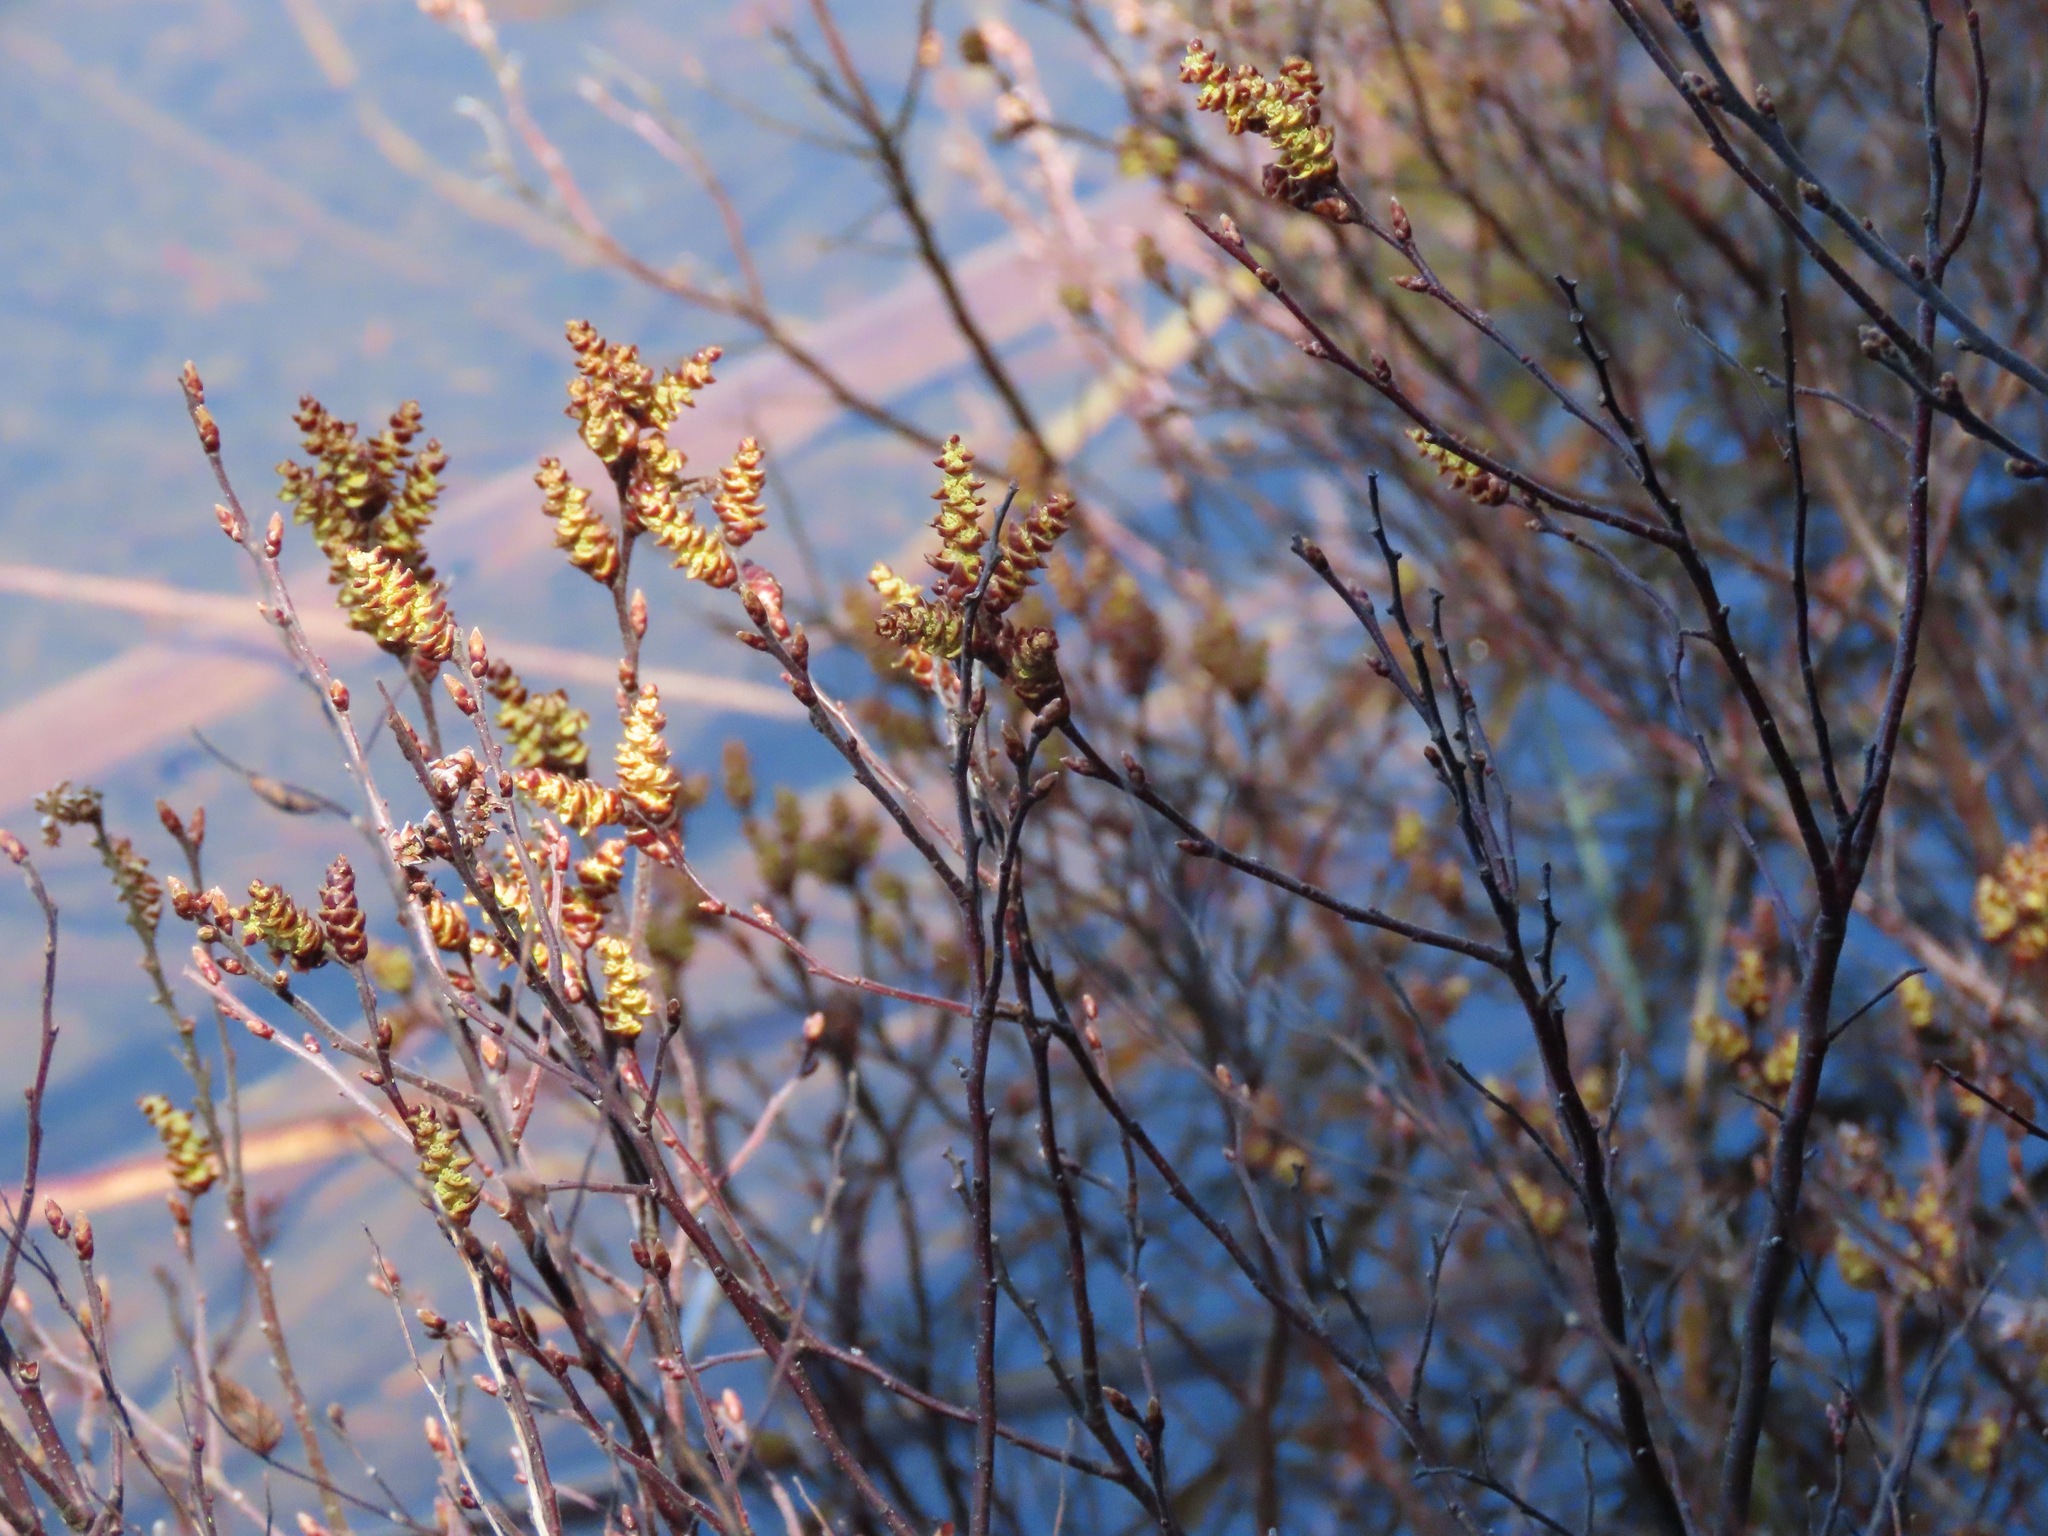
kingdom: Plantae
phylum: Tracheophyta
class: Magnoliopsida
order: Fagales
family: Myricaceae
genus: Myrica
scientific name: Myrica gale
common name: Sweet gale
